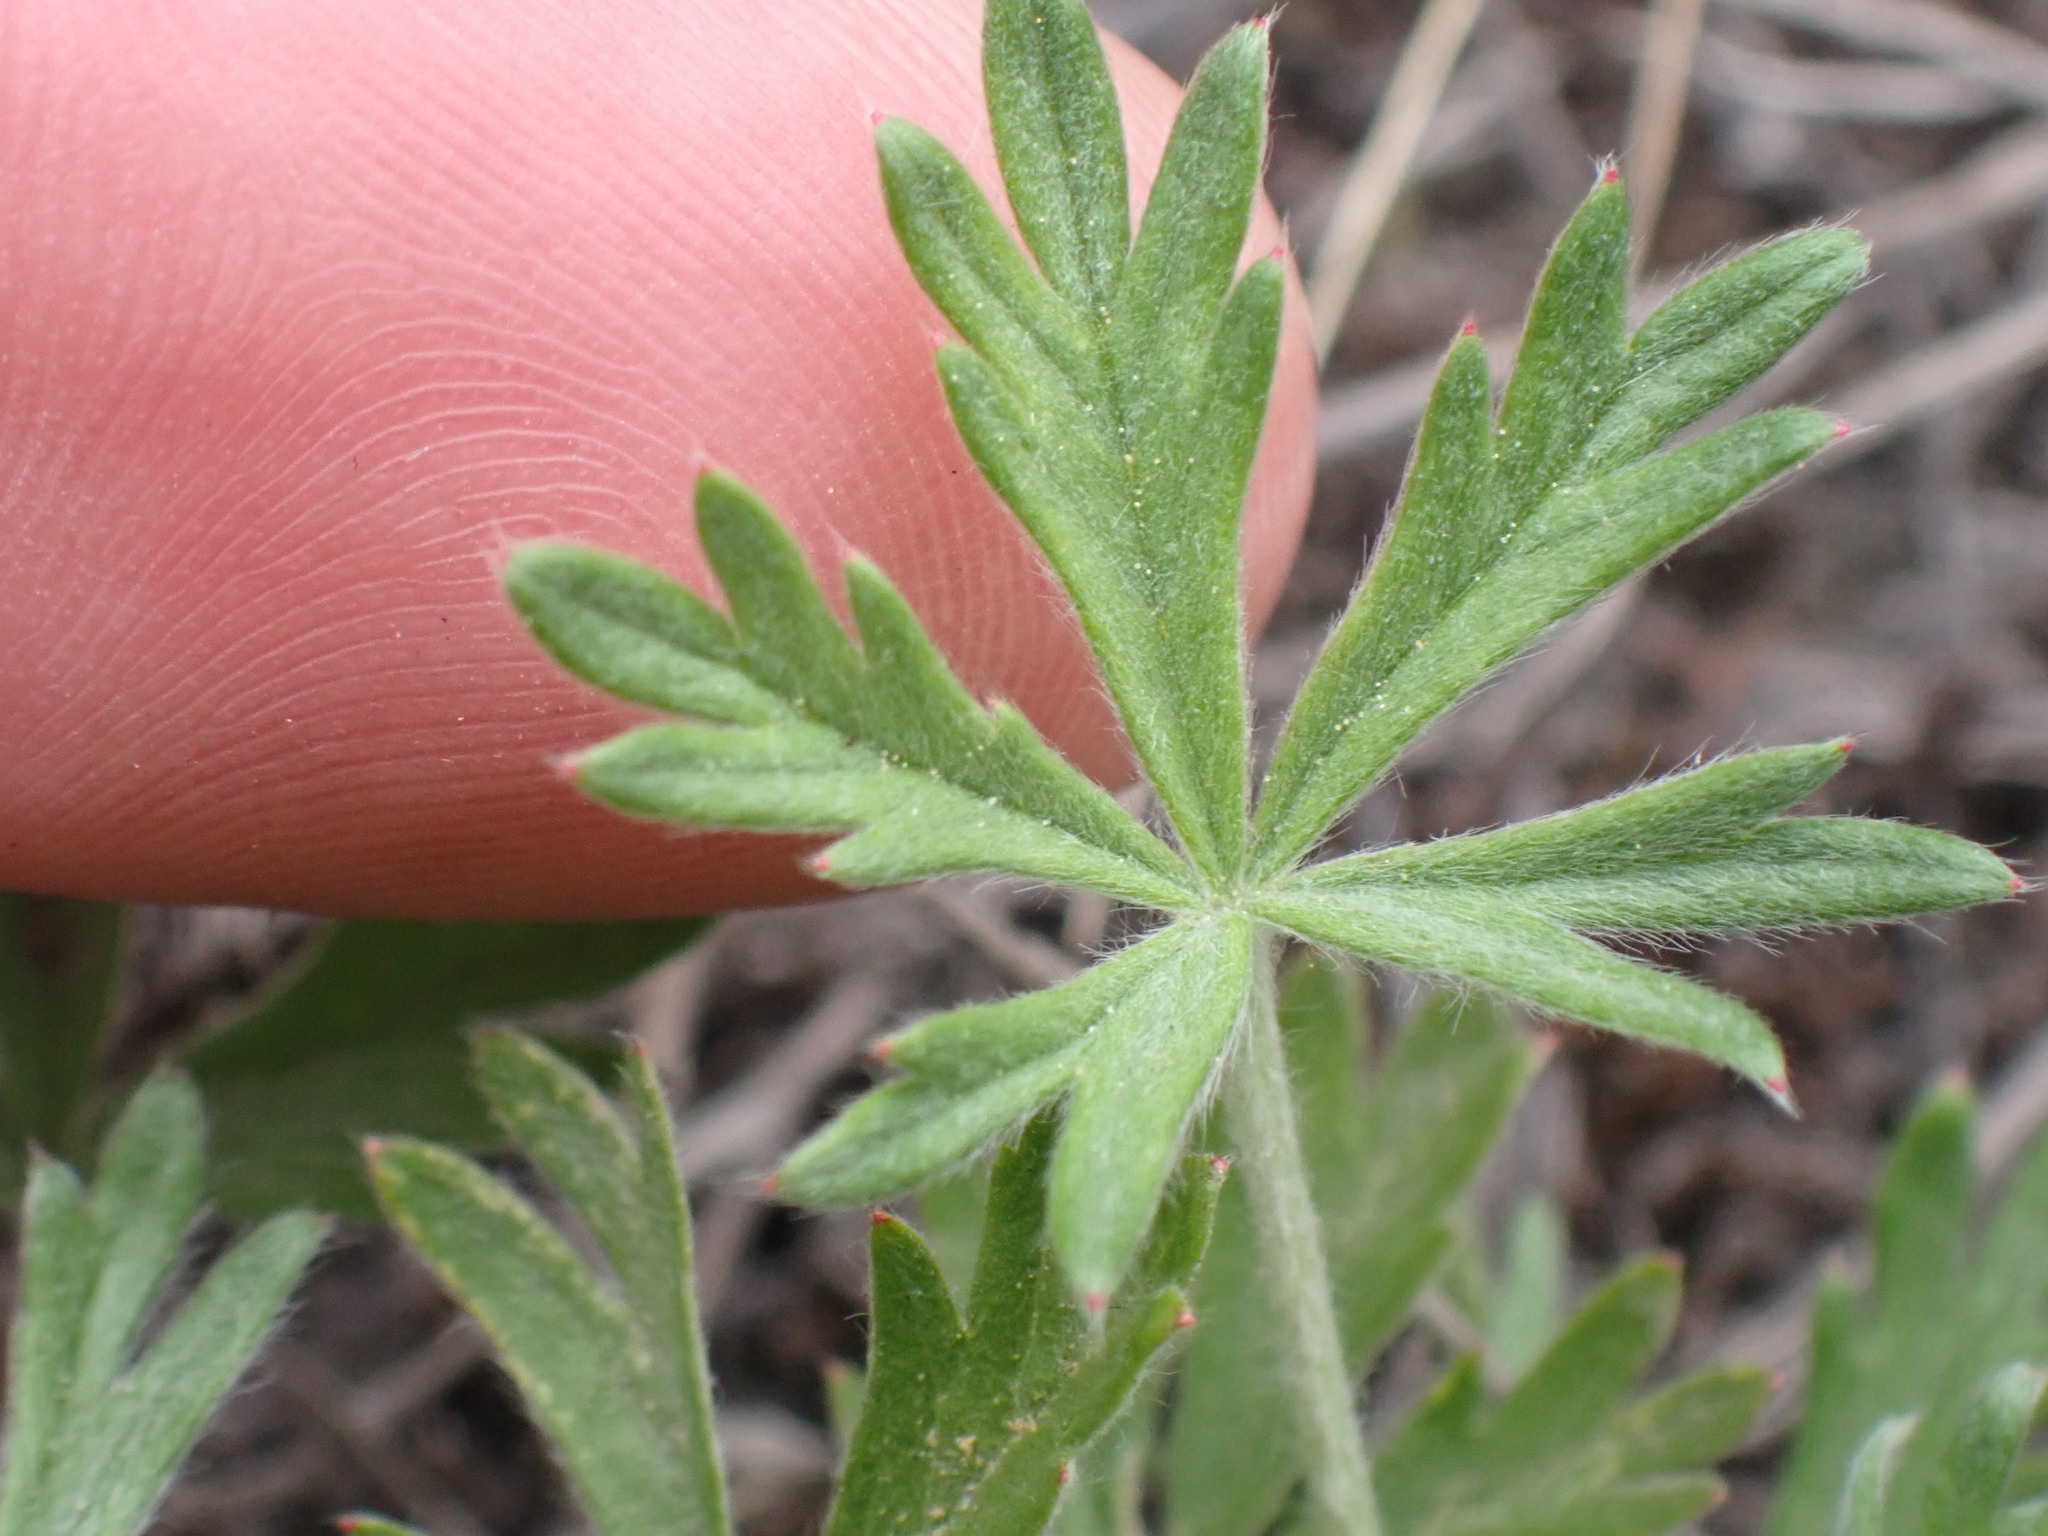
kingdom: Plantae
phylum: Tracheophyta
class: Magnoliopsida
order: Rosales
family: Rosaceae
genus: Potentilla
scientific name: Potentilla argentea
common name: Hoary cinquefoil
